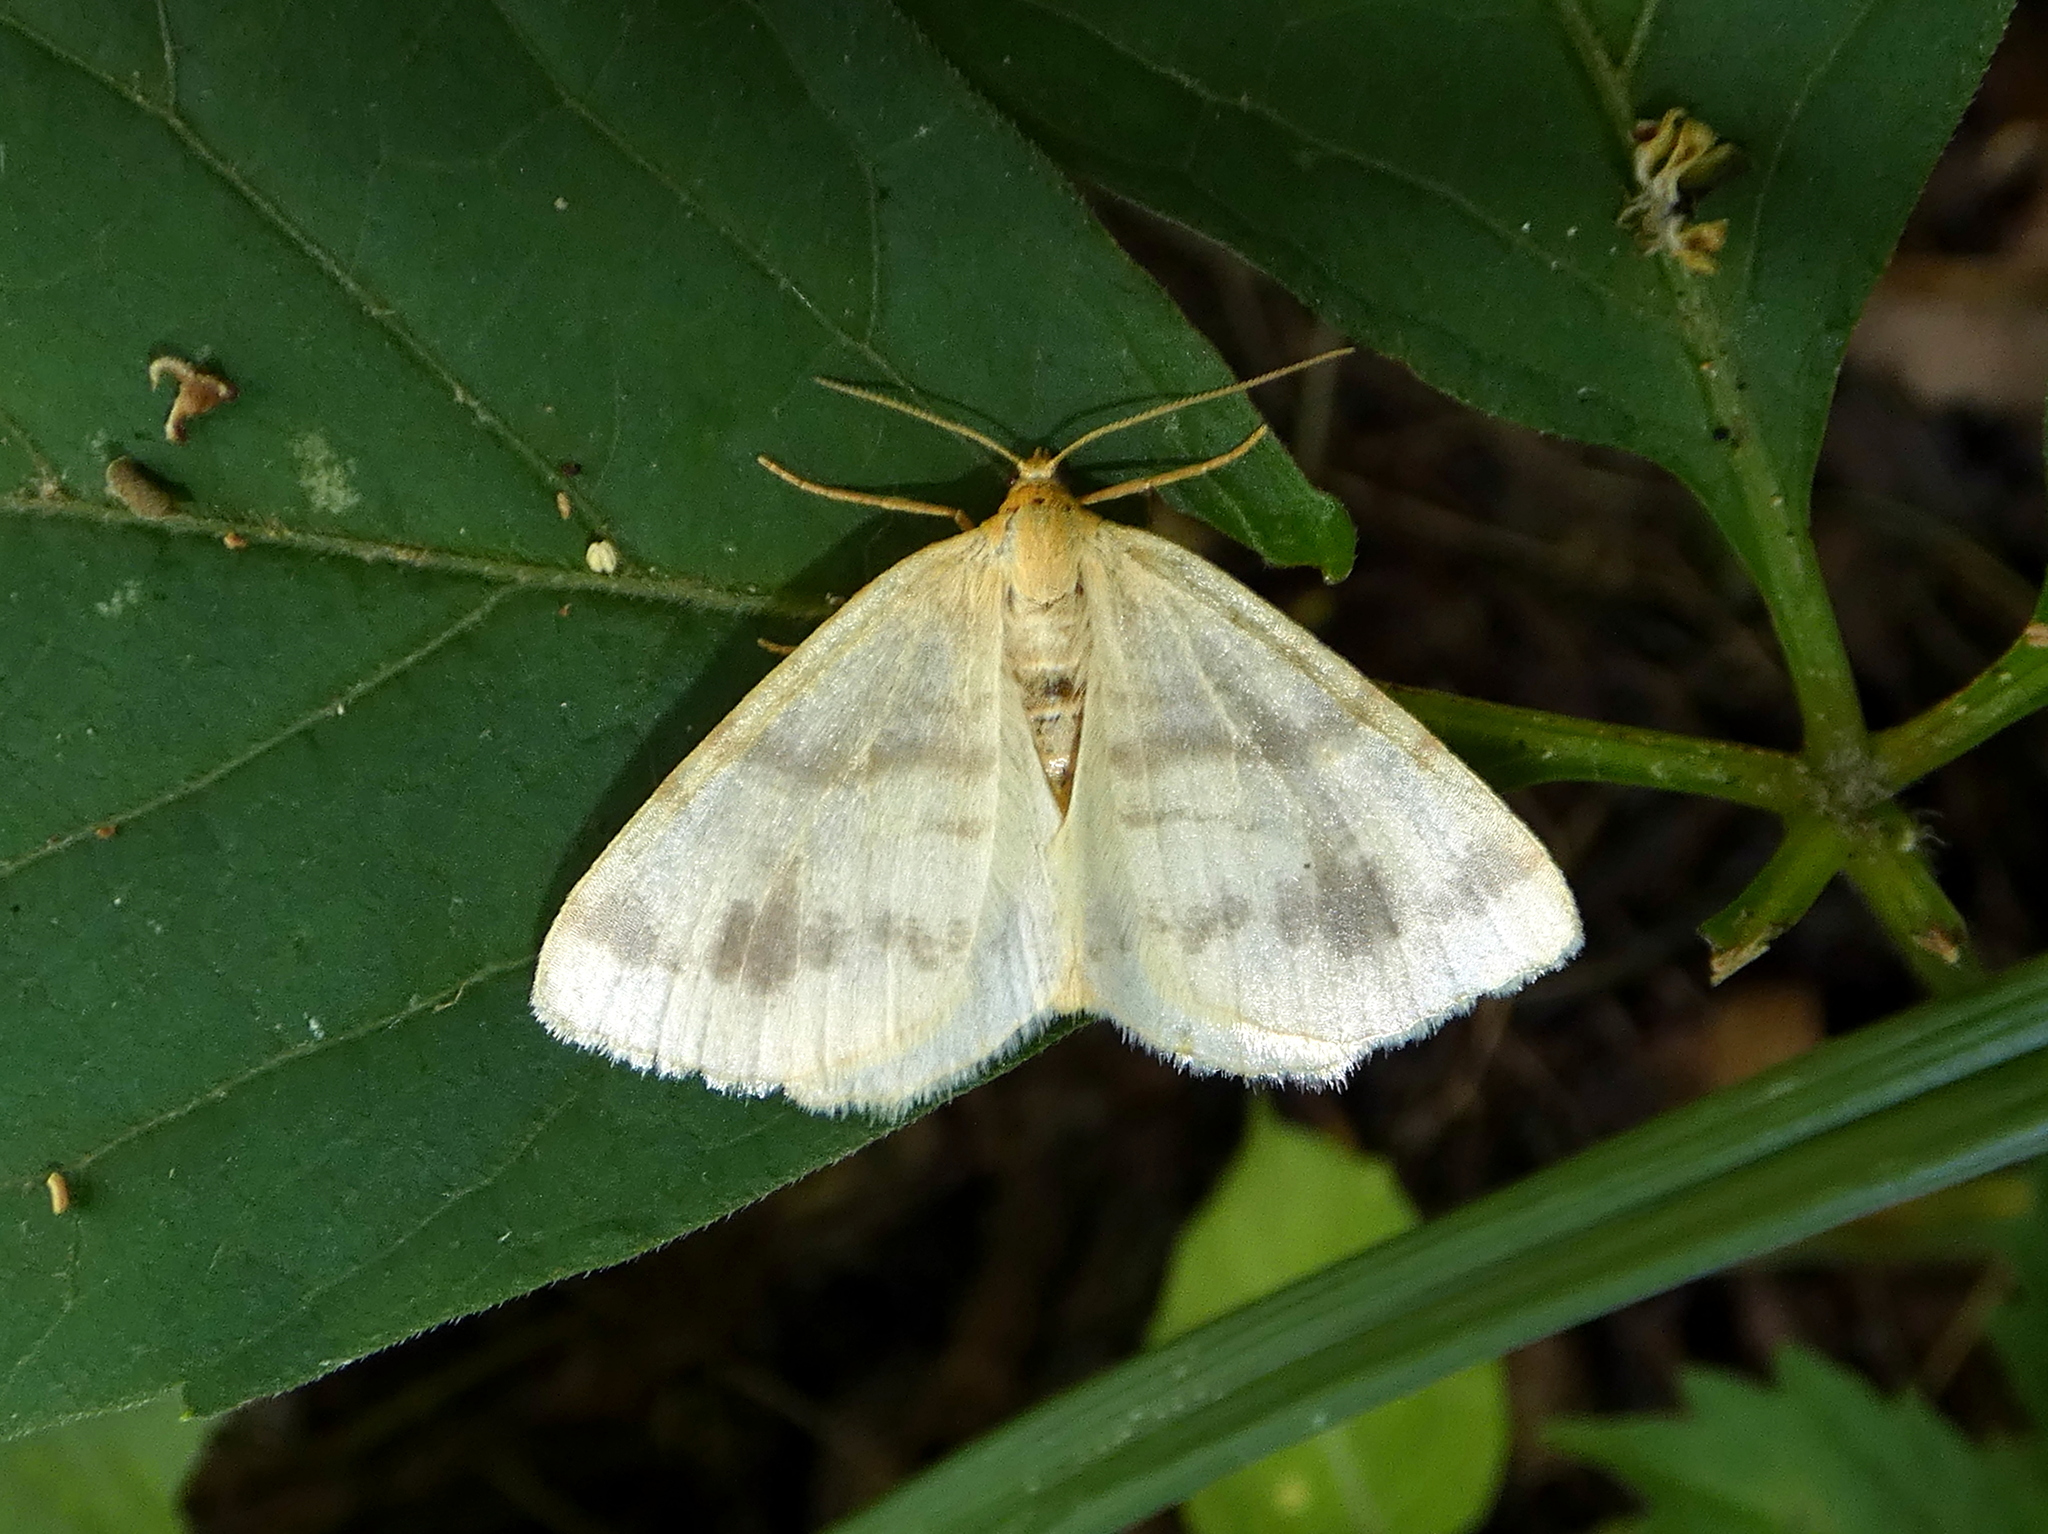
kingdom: Animalia
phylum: Arthropoda
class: Insecta
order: Lepidoptera
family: Geometridae
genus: Macaria
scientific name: Macaria ribearia
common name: Currant spanworm moth
